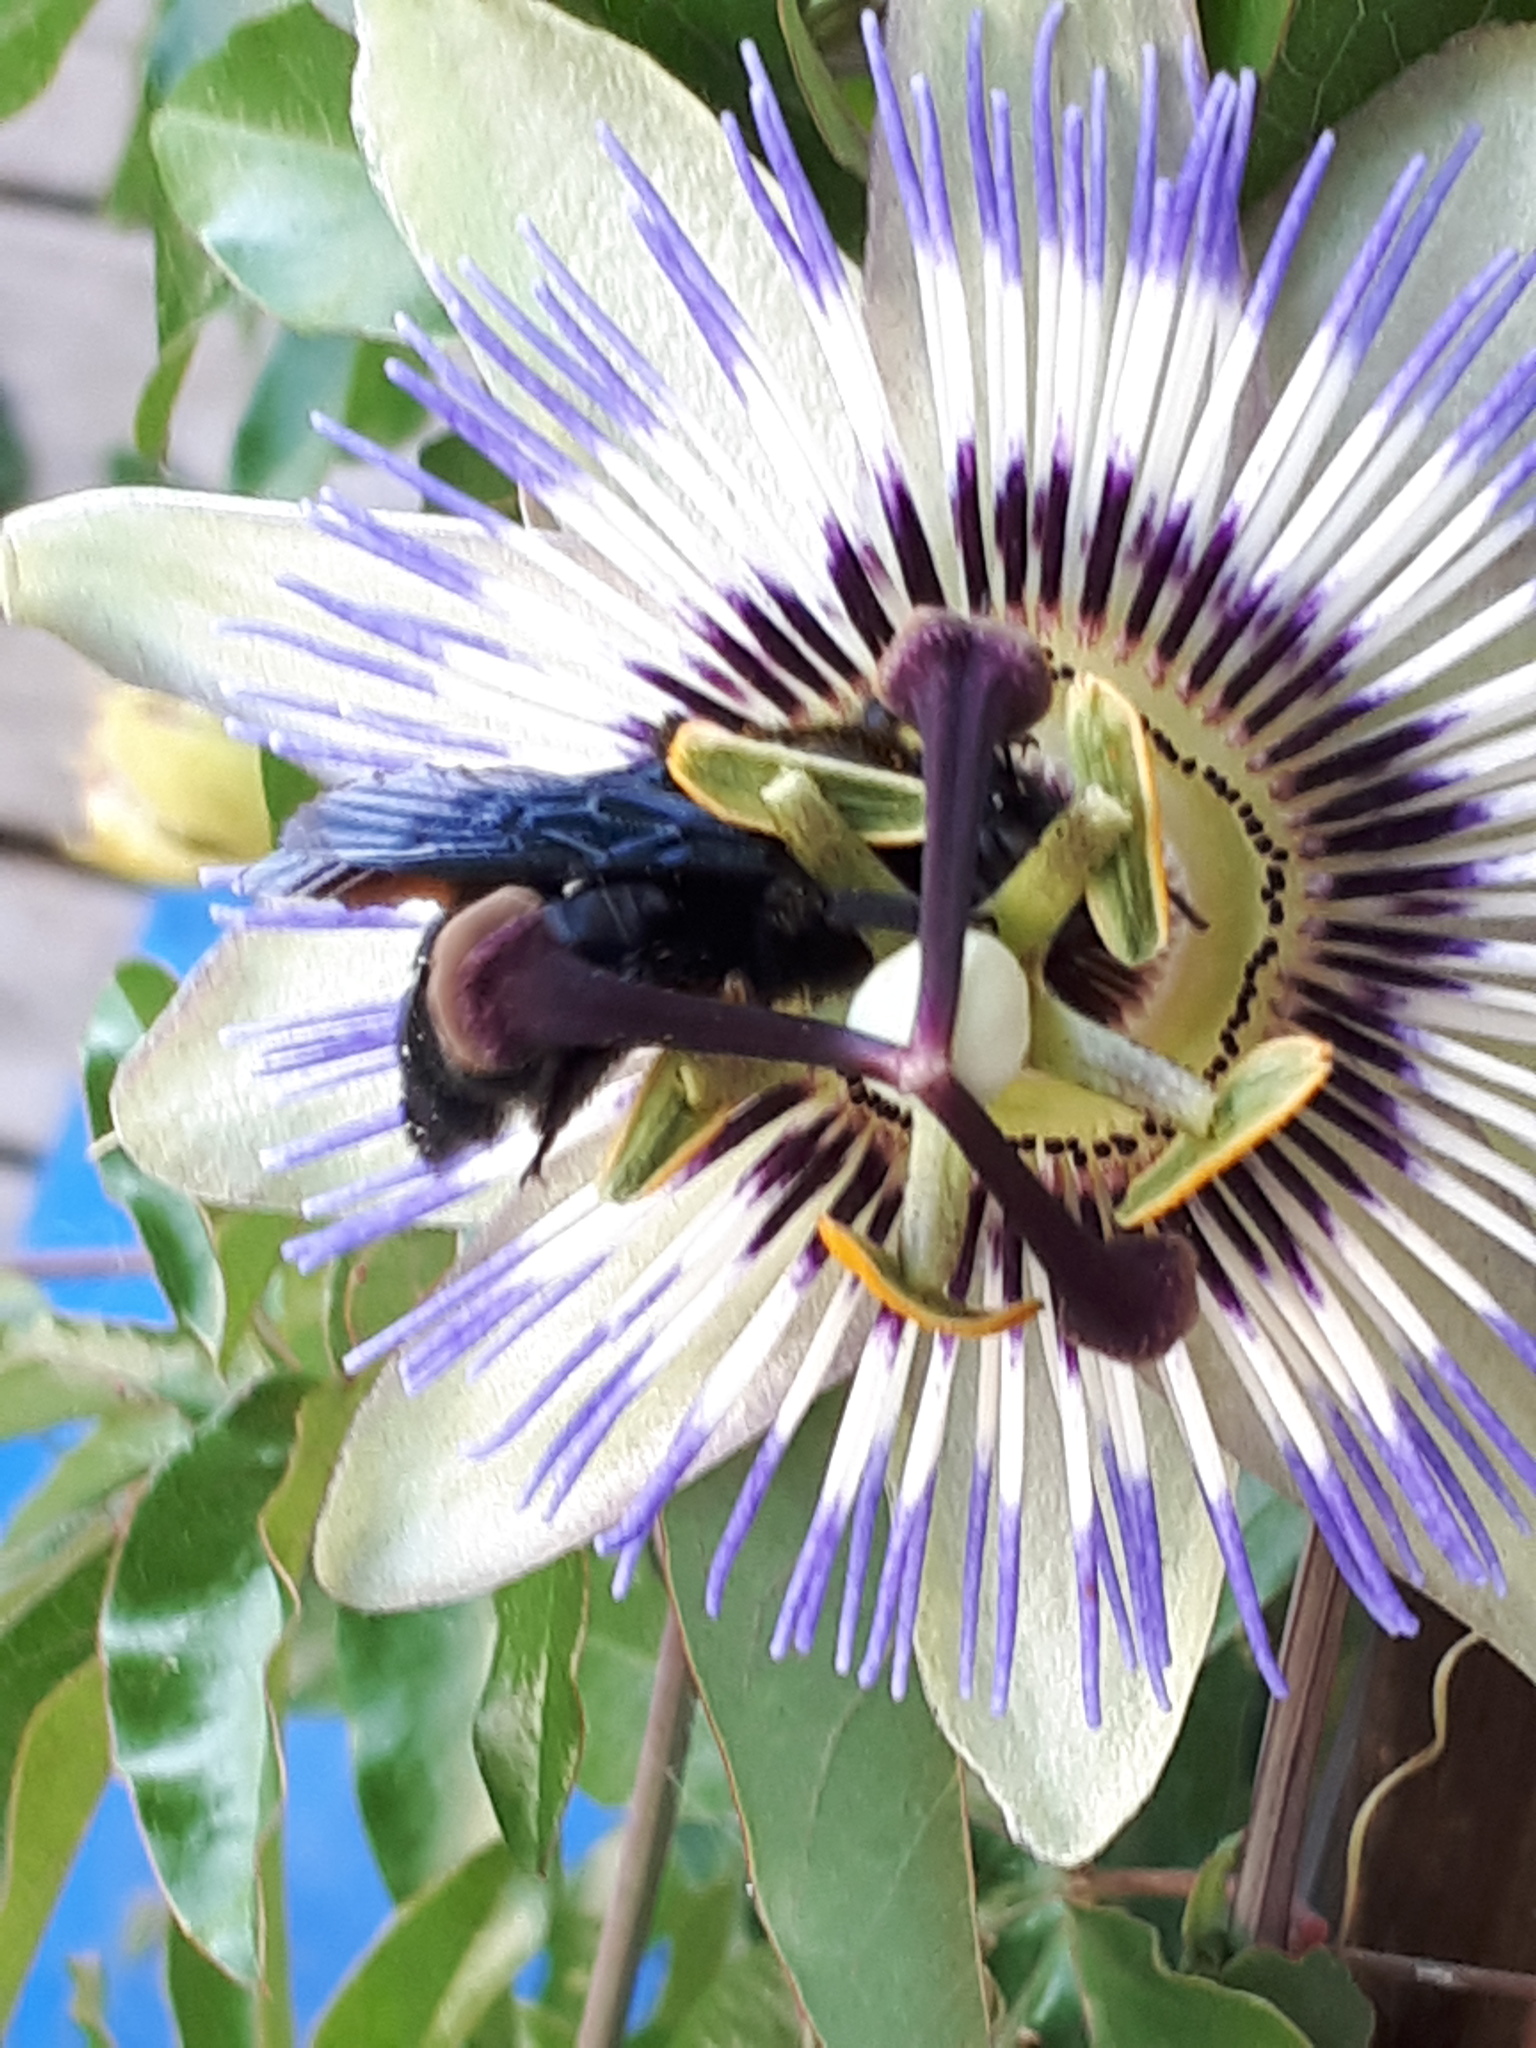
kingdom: Animalia
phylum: Arthropoda
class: Insecta
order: Hymenoptera
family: Apidae
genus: Xylocopa
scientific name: Xylocopa violacea
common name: Violet carpenter bee
